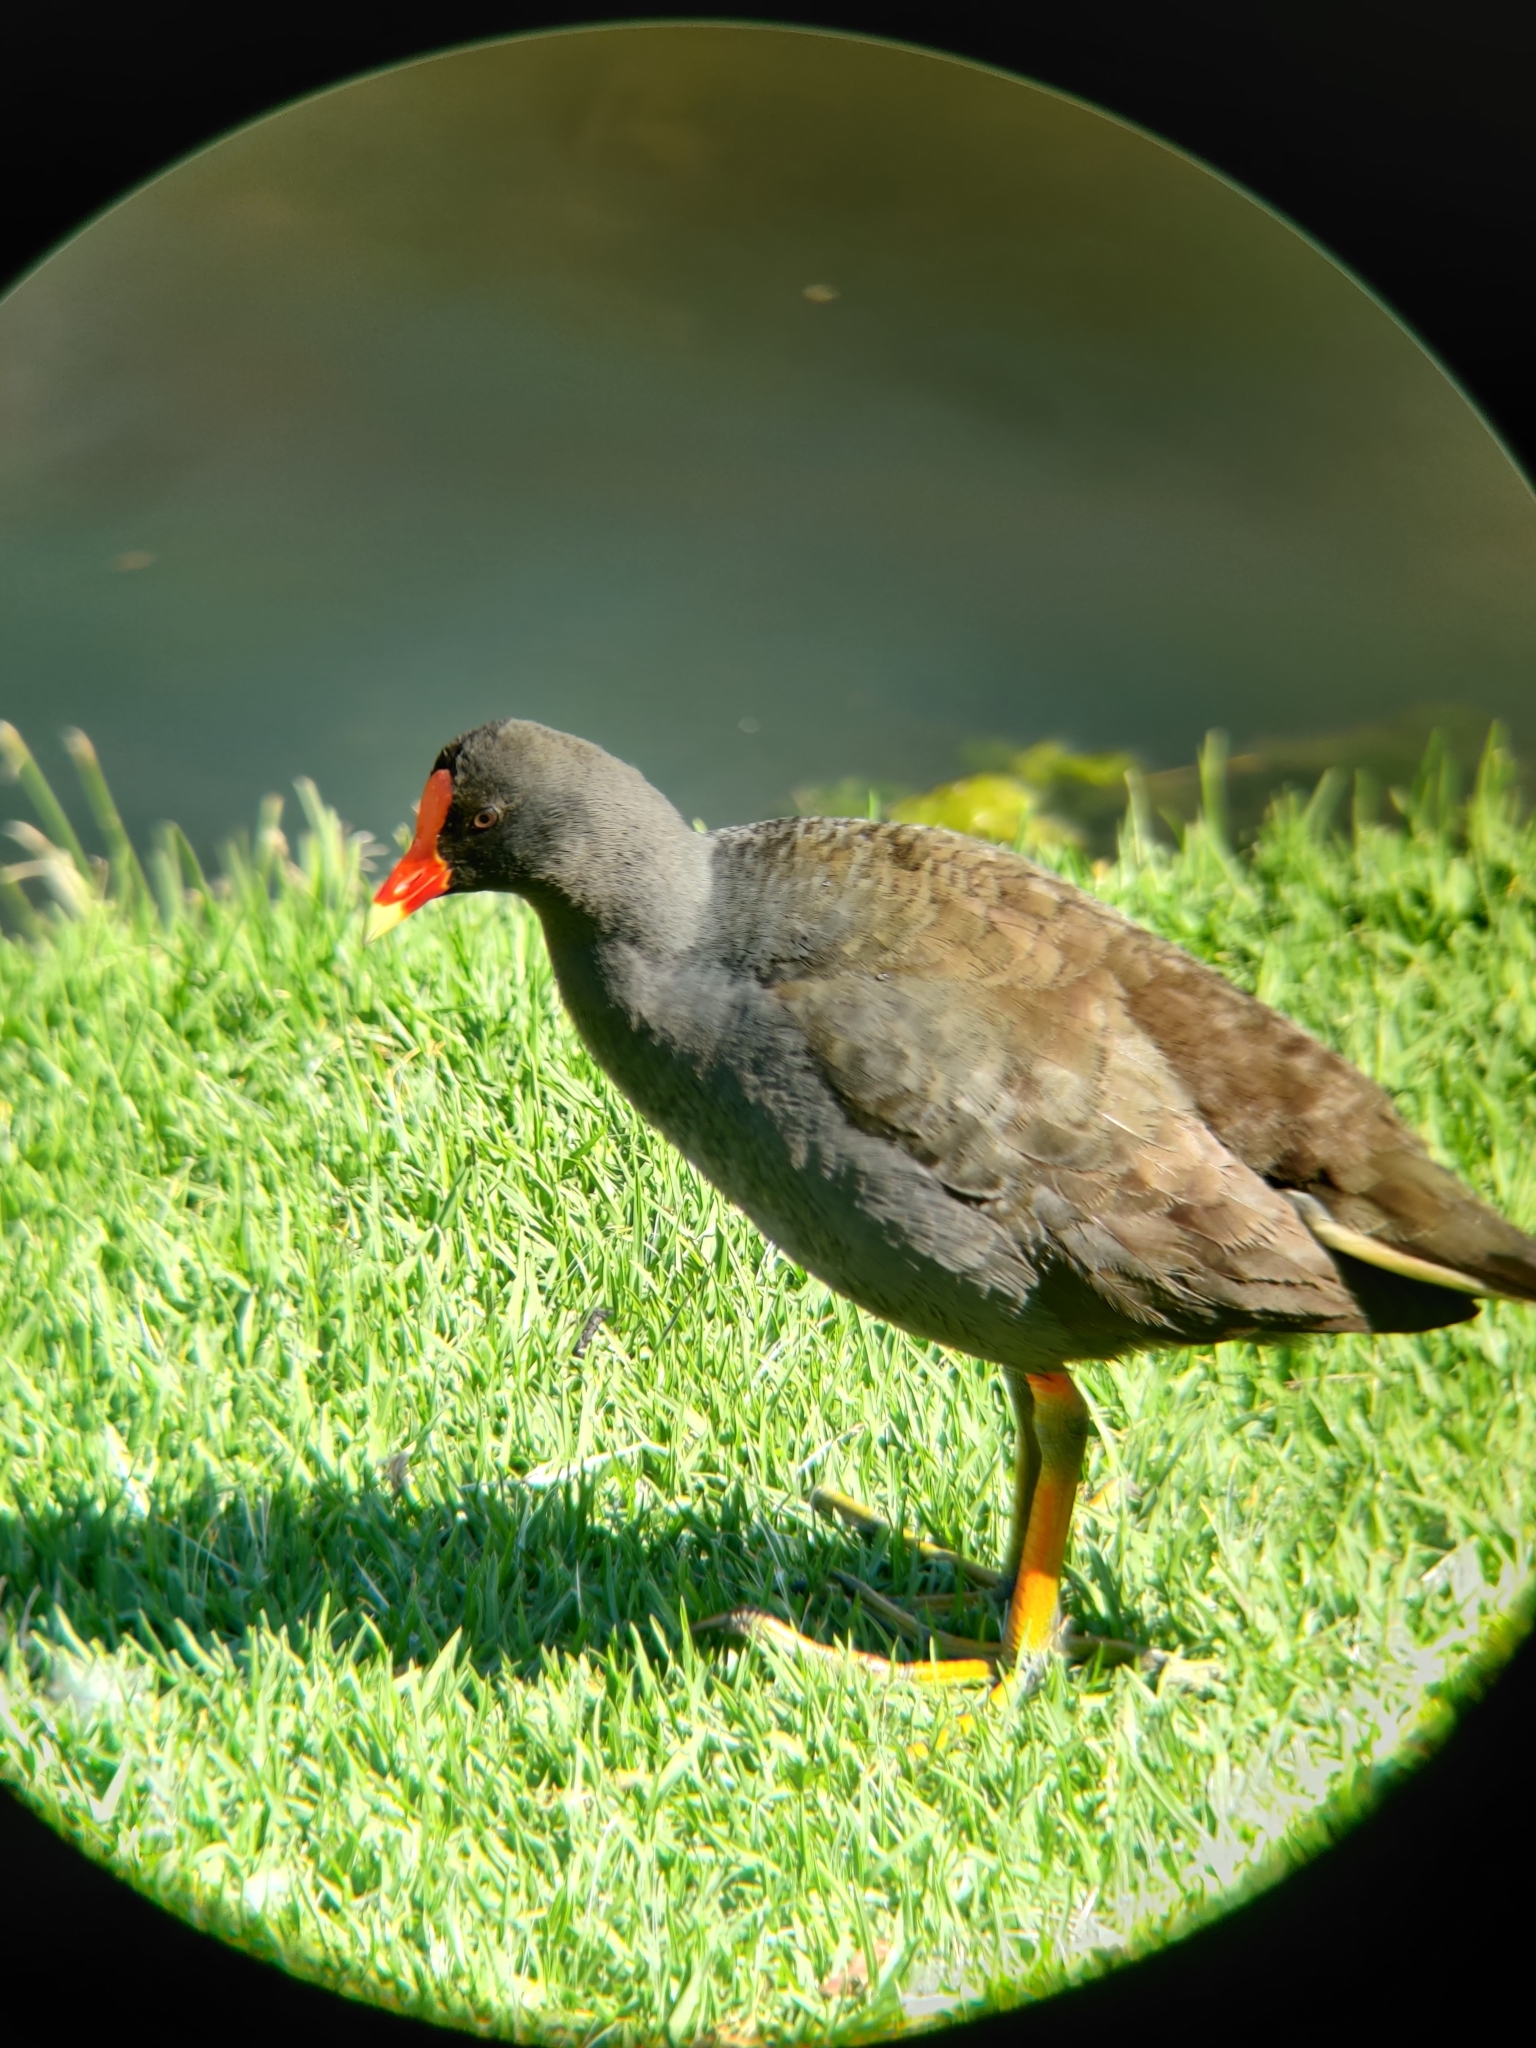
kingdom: Animalia
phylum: Chordata
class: Aves
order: Gruiformes
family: Rallidae
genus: Gallinula
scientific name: Gallinula tenebrosa
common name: Dusky moorhen
